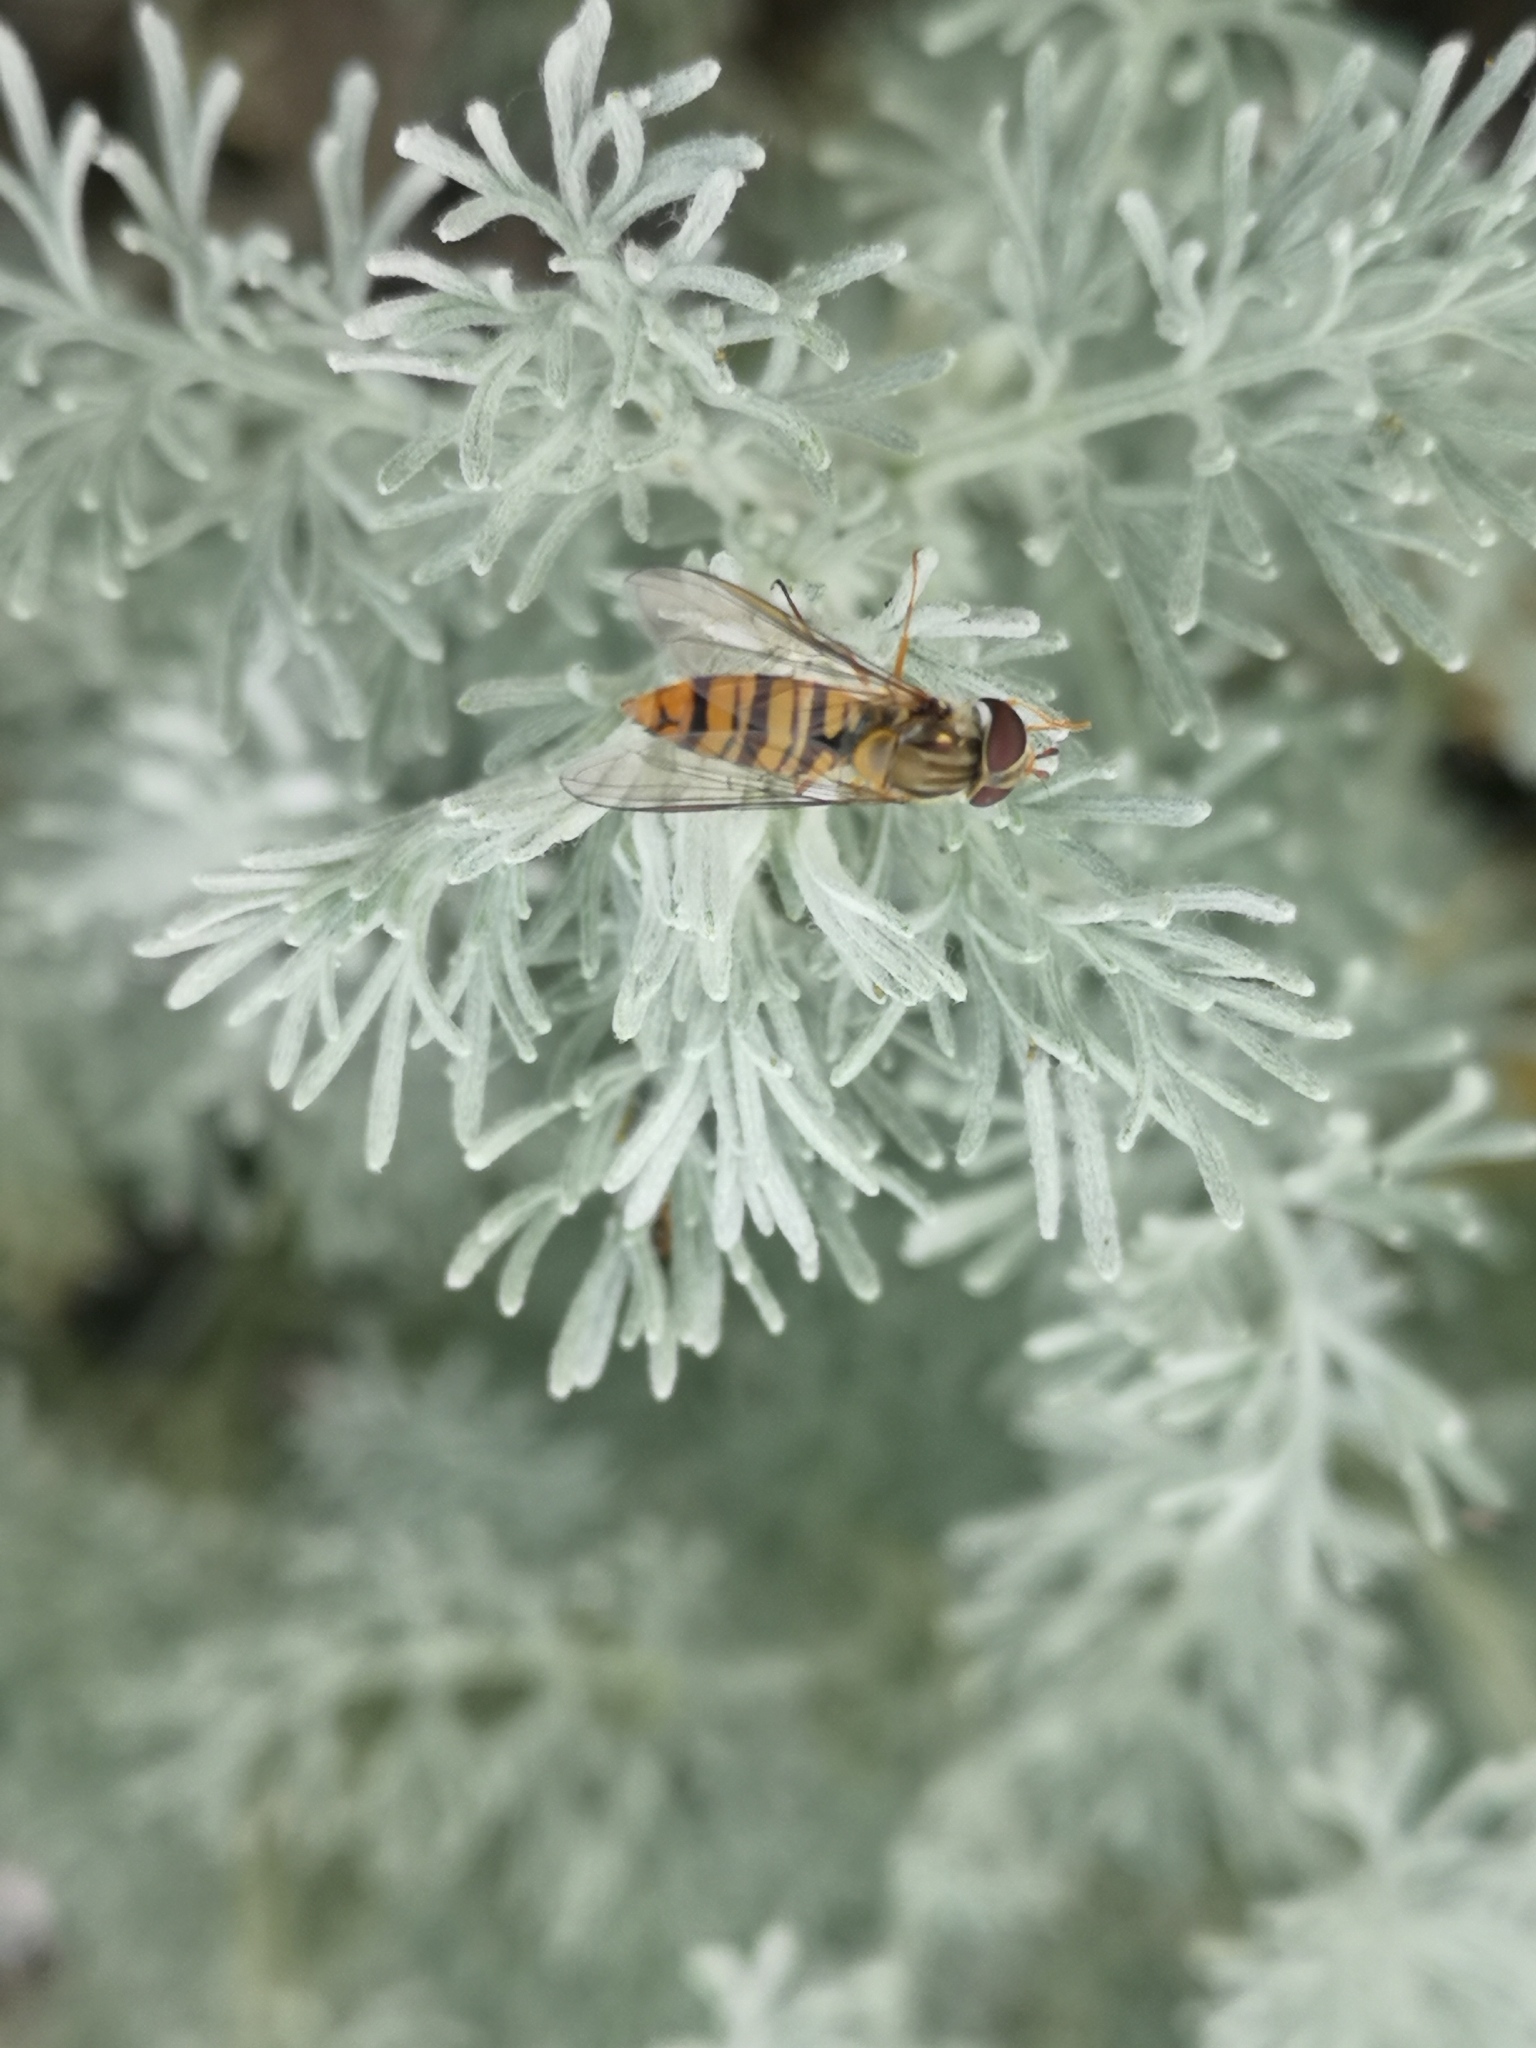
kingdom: Animalia
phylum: Arthropoda
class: Insecta
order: Diptera
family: Syrphidae
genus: Episyrphus
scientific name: Episyrphus balteatus
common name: Marmalade hoverfly
